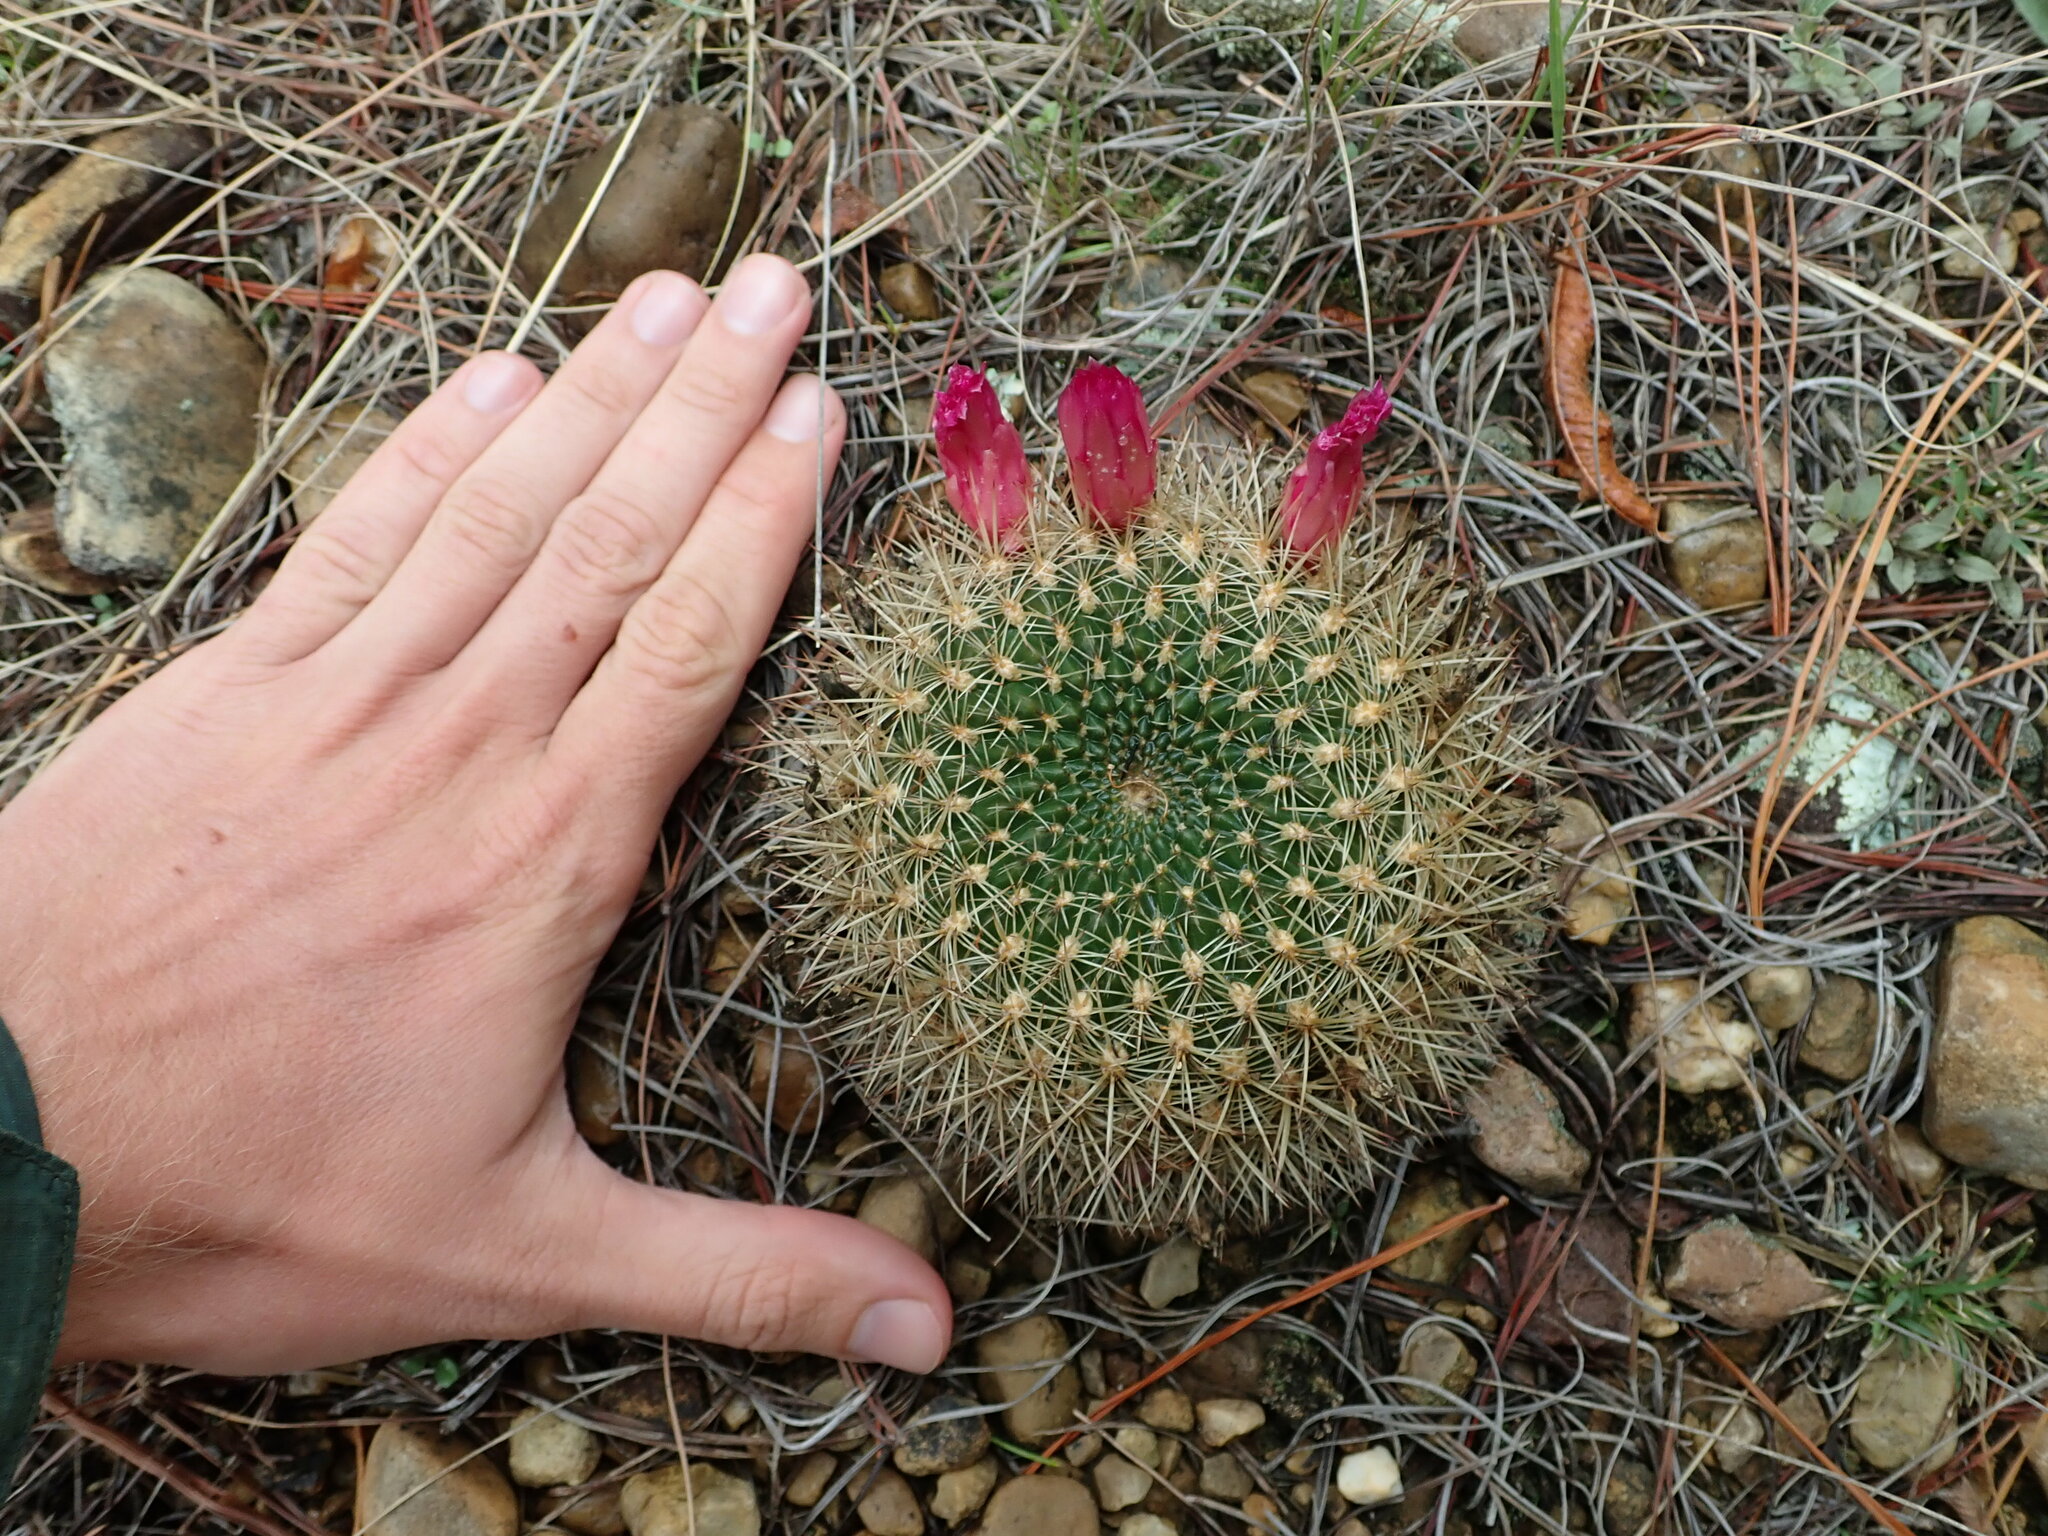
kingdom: Plantae
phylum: Tracheophyta
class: Magnoliopsida
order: Caryophyllales
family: Cactaceae
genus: Weingartia
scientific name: Weingartia tiraquensis
